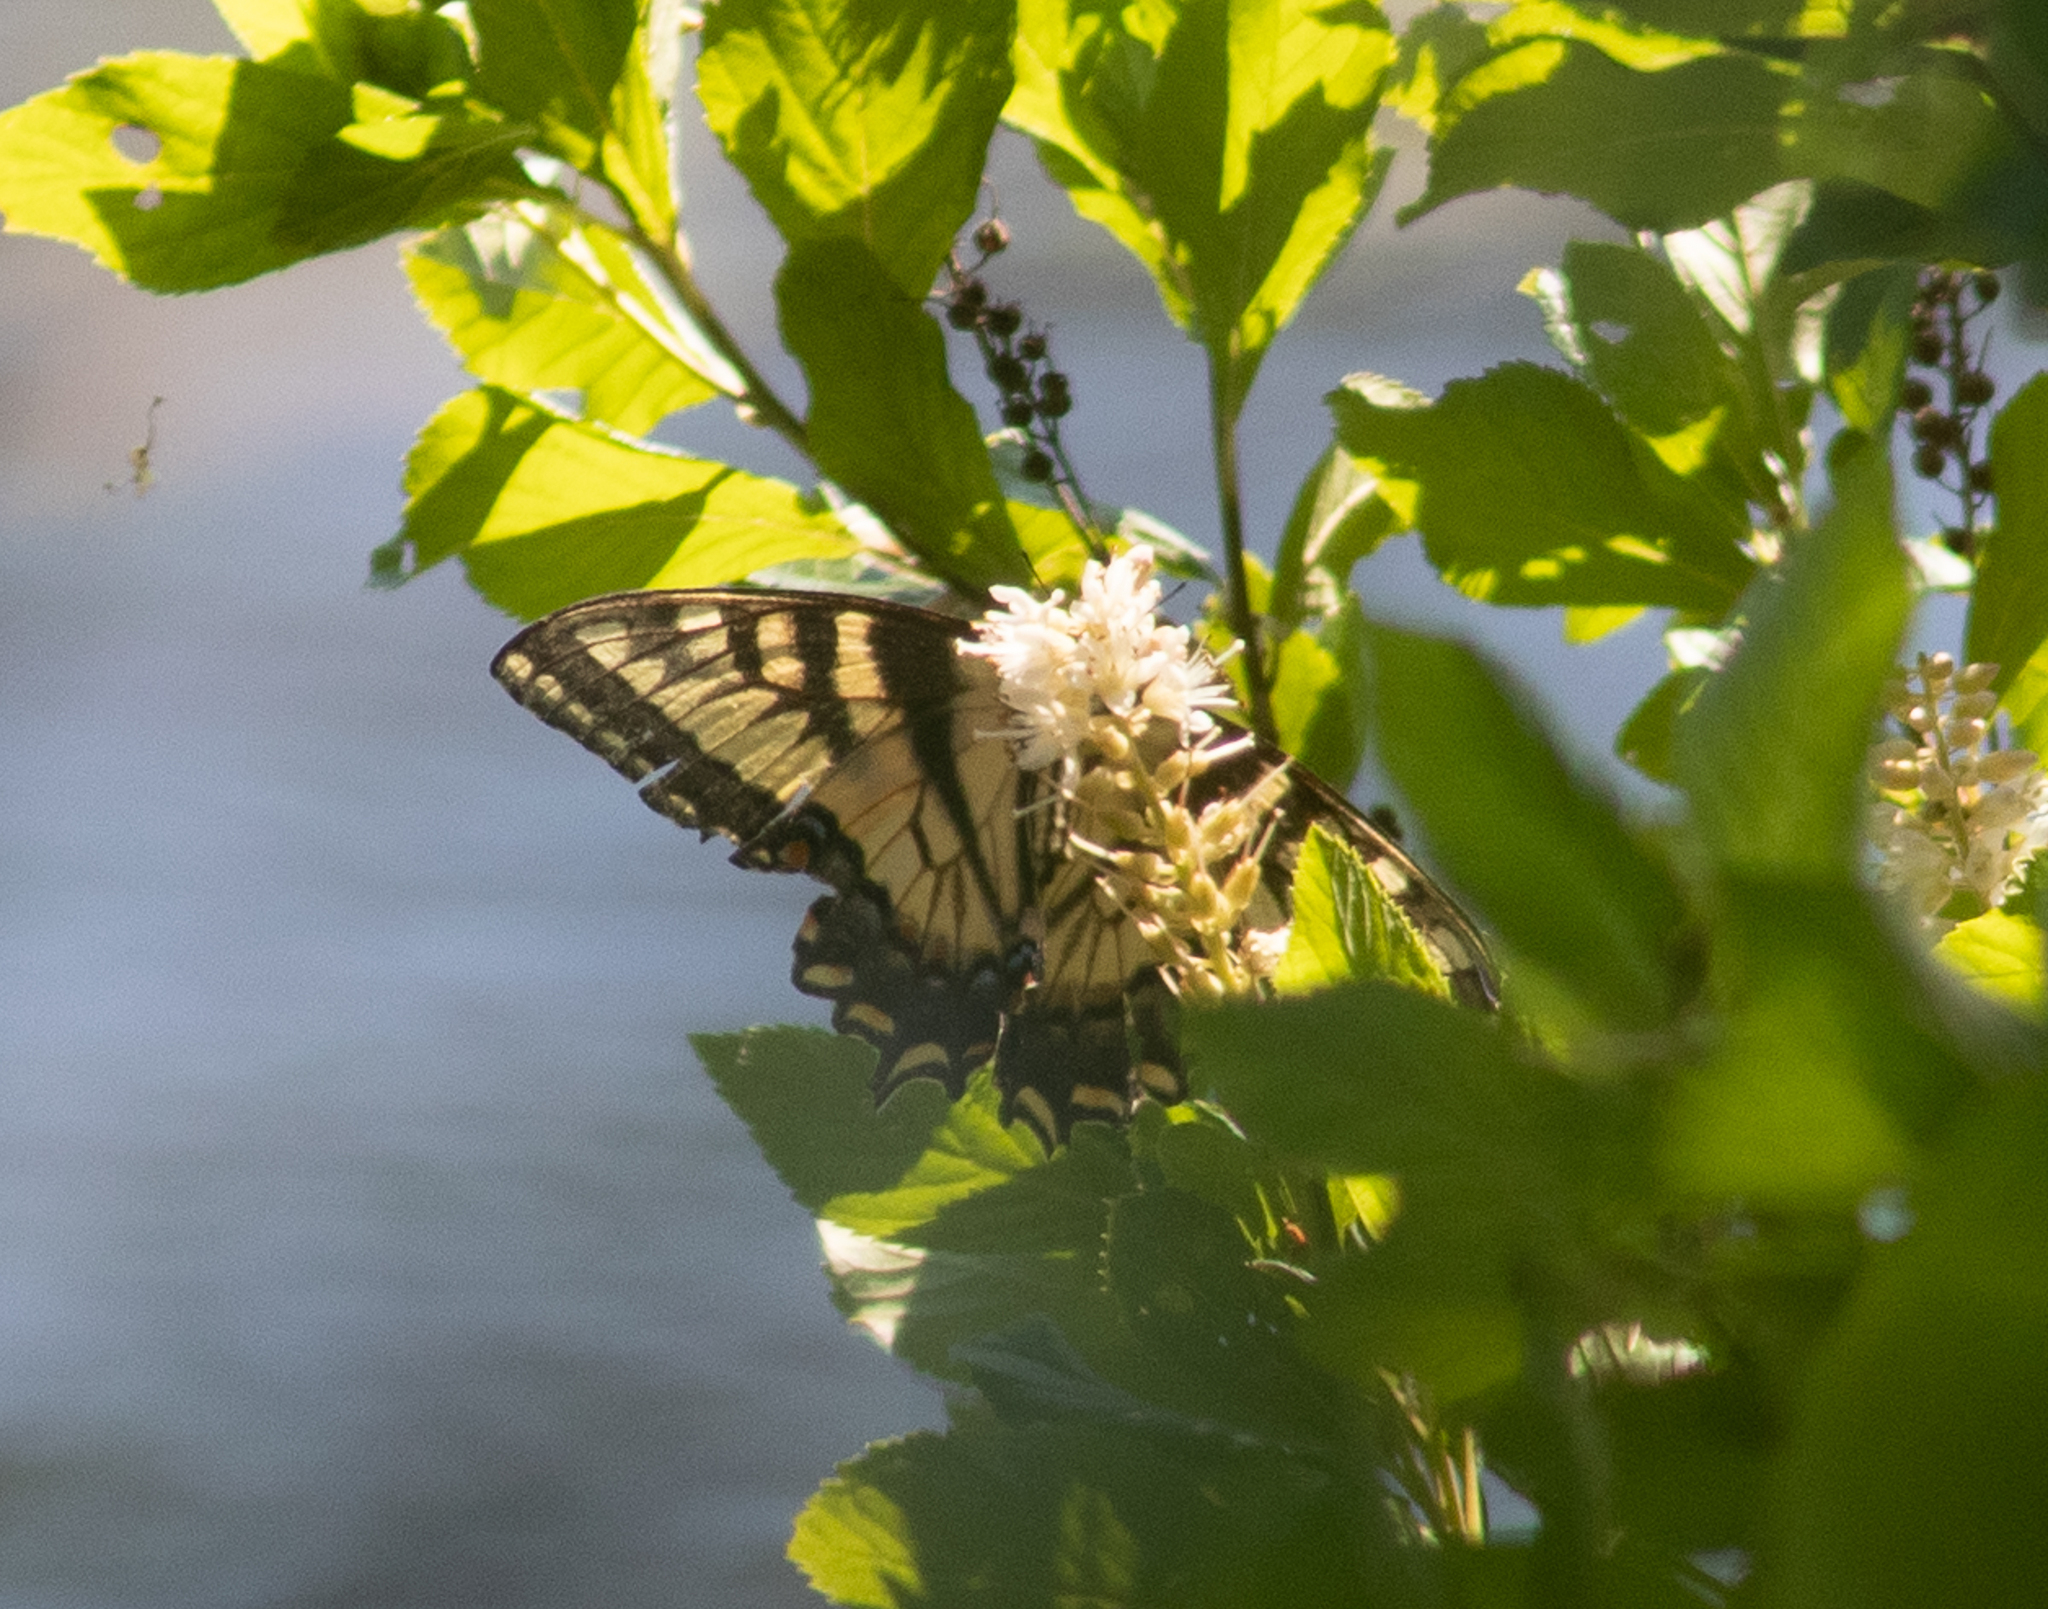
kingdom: Animalia
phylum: Arthropoda
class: Insecta
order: Lepidoptera
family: Papilionidae
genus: Pterourus
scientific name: Pterourus
